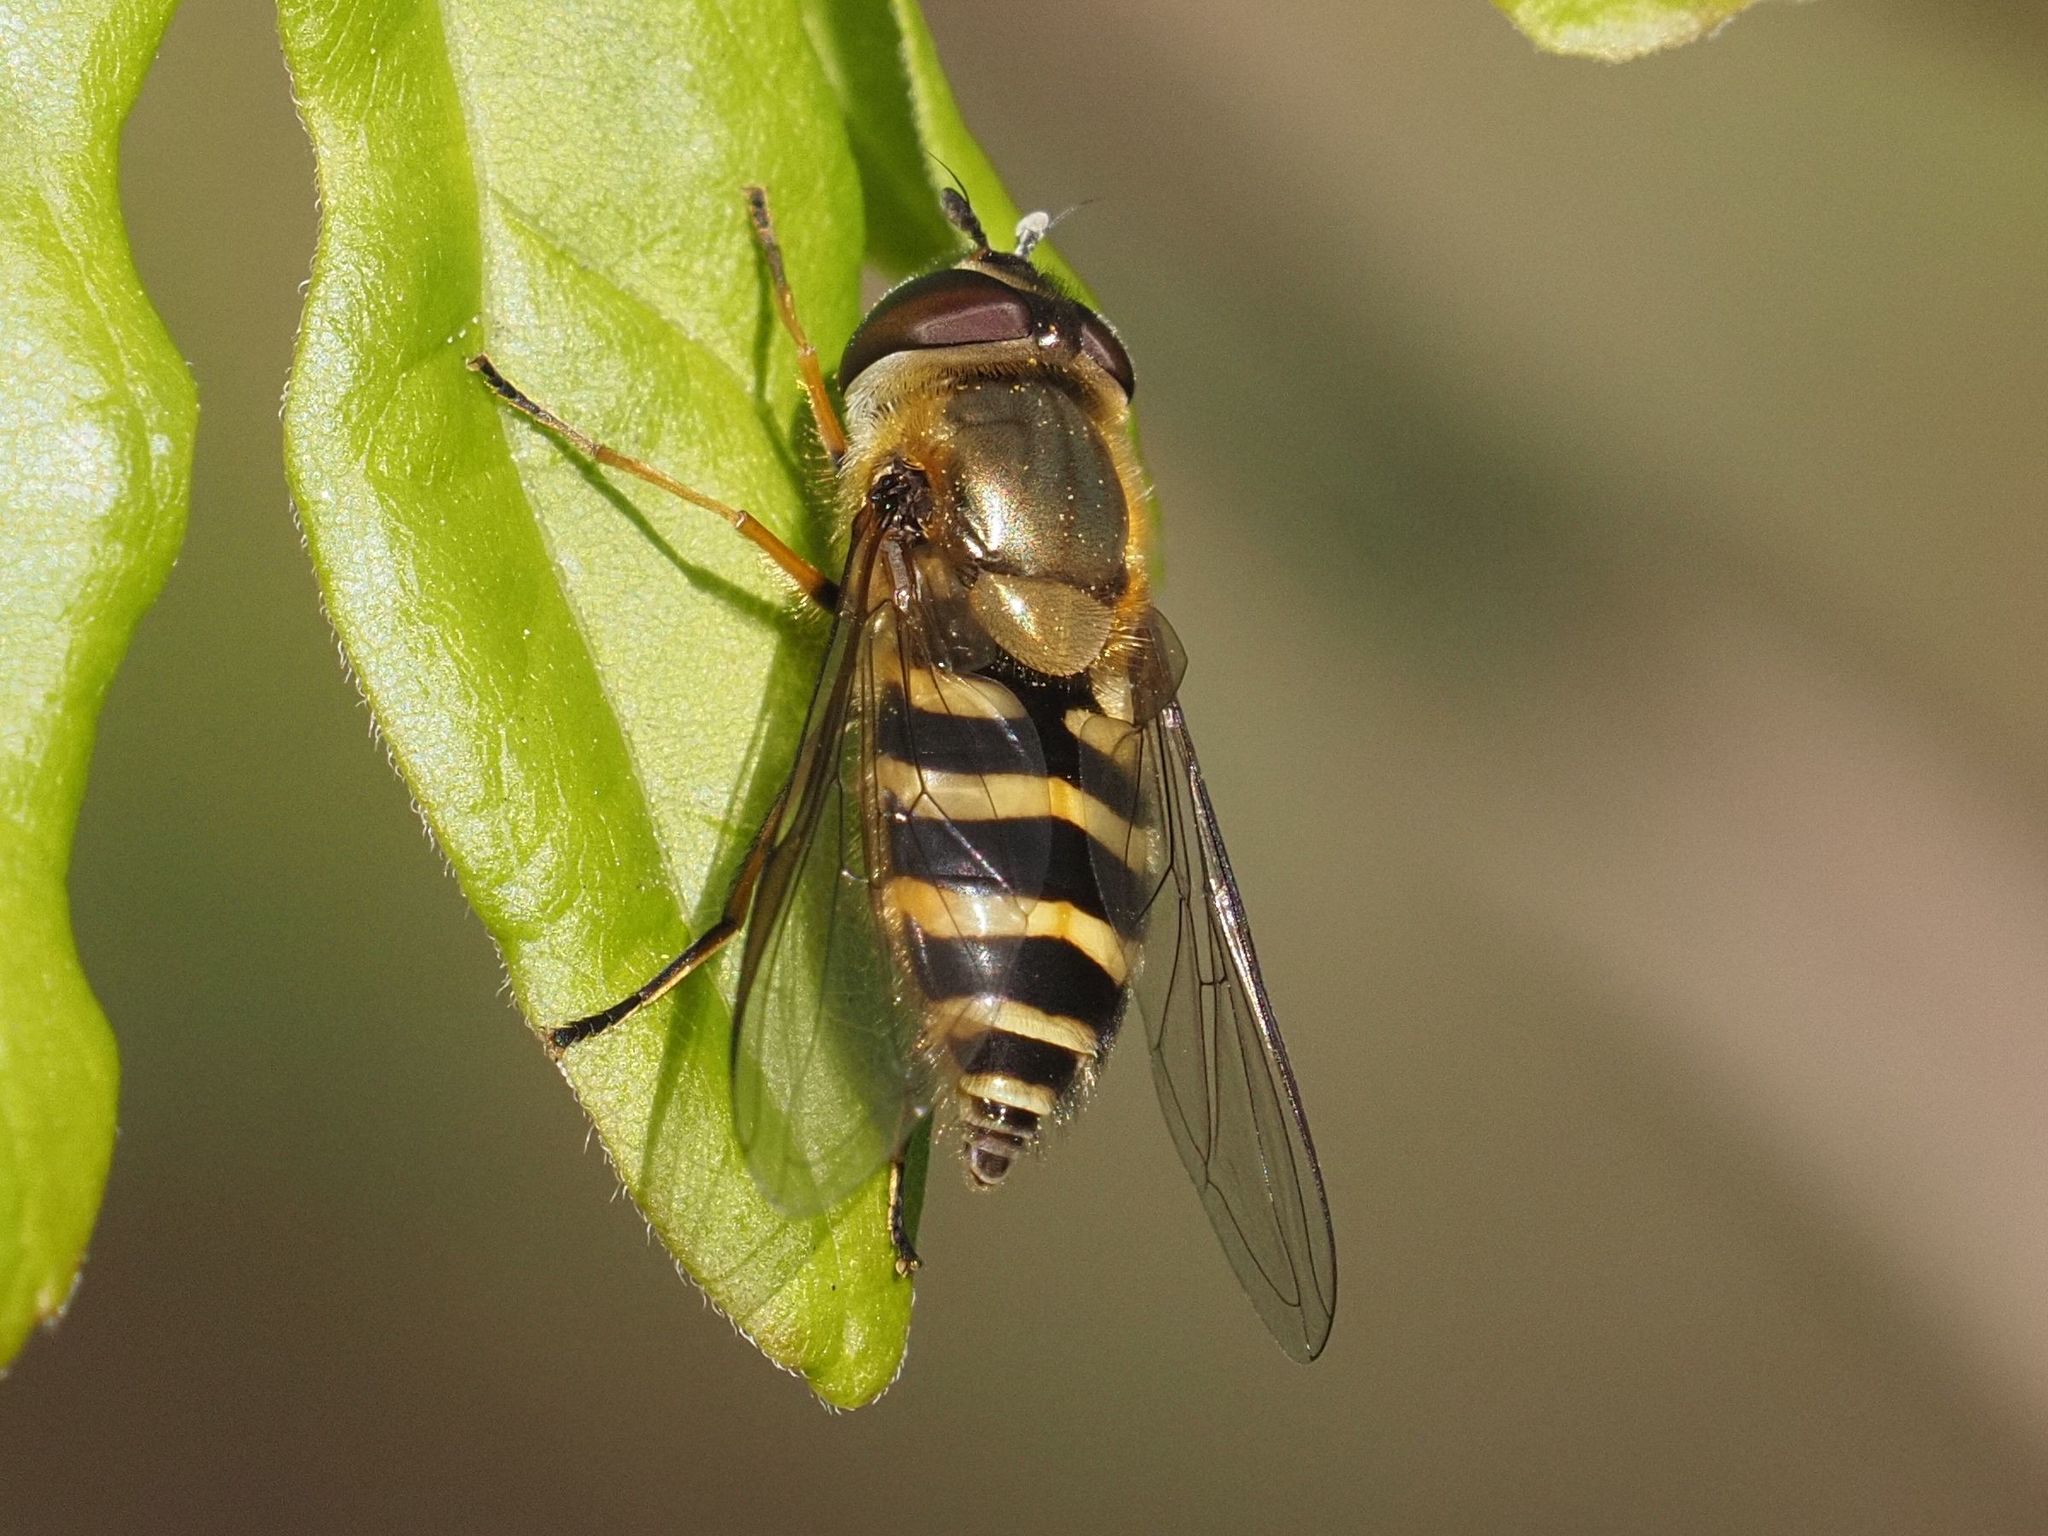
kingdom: Animalia
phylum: Arthropoda
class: Insecta
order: Diptera
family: Syrphidae
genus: Syrphus
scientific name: Syrphus torvus
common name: Hairy-eyed flower fly
